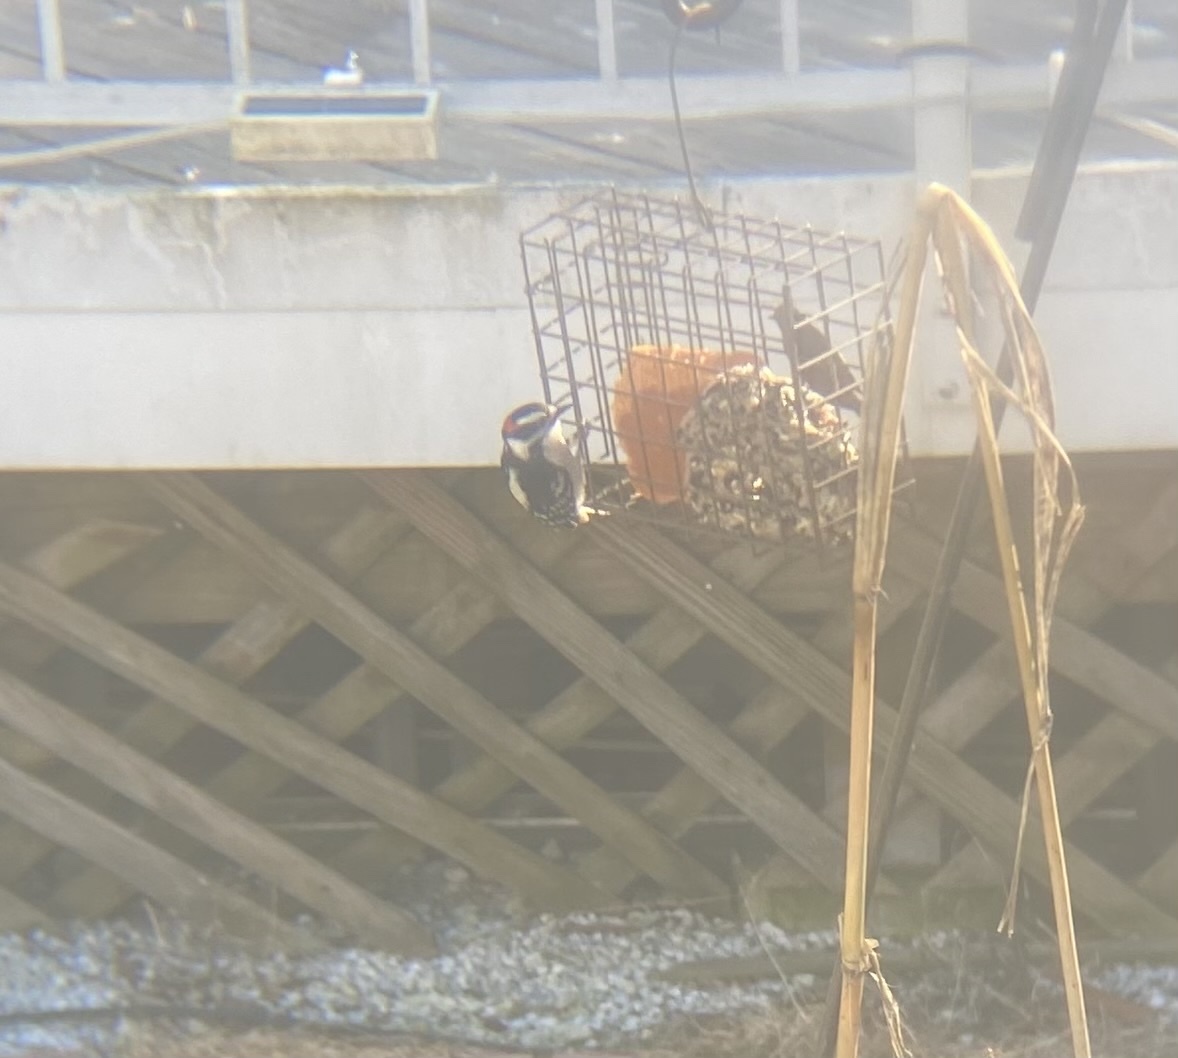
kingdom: Animalia
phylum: Chordata
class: Aves
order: Piciformes
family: Picidae
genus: Dryobates
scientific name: Dryobates pubescens
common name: Downy woodpecker
